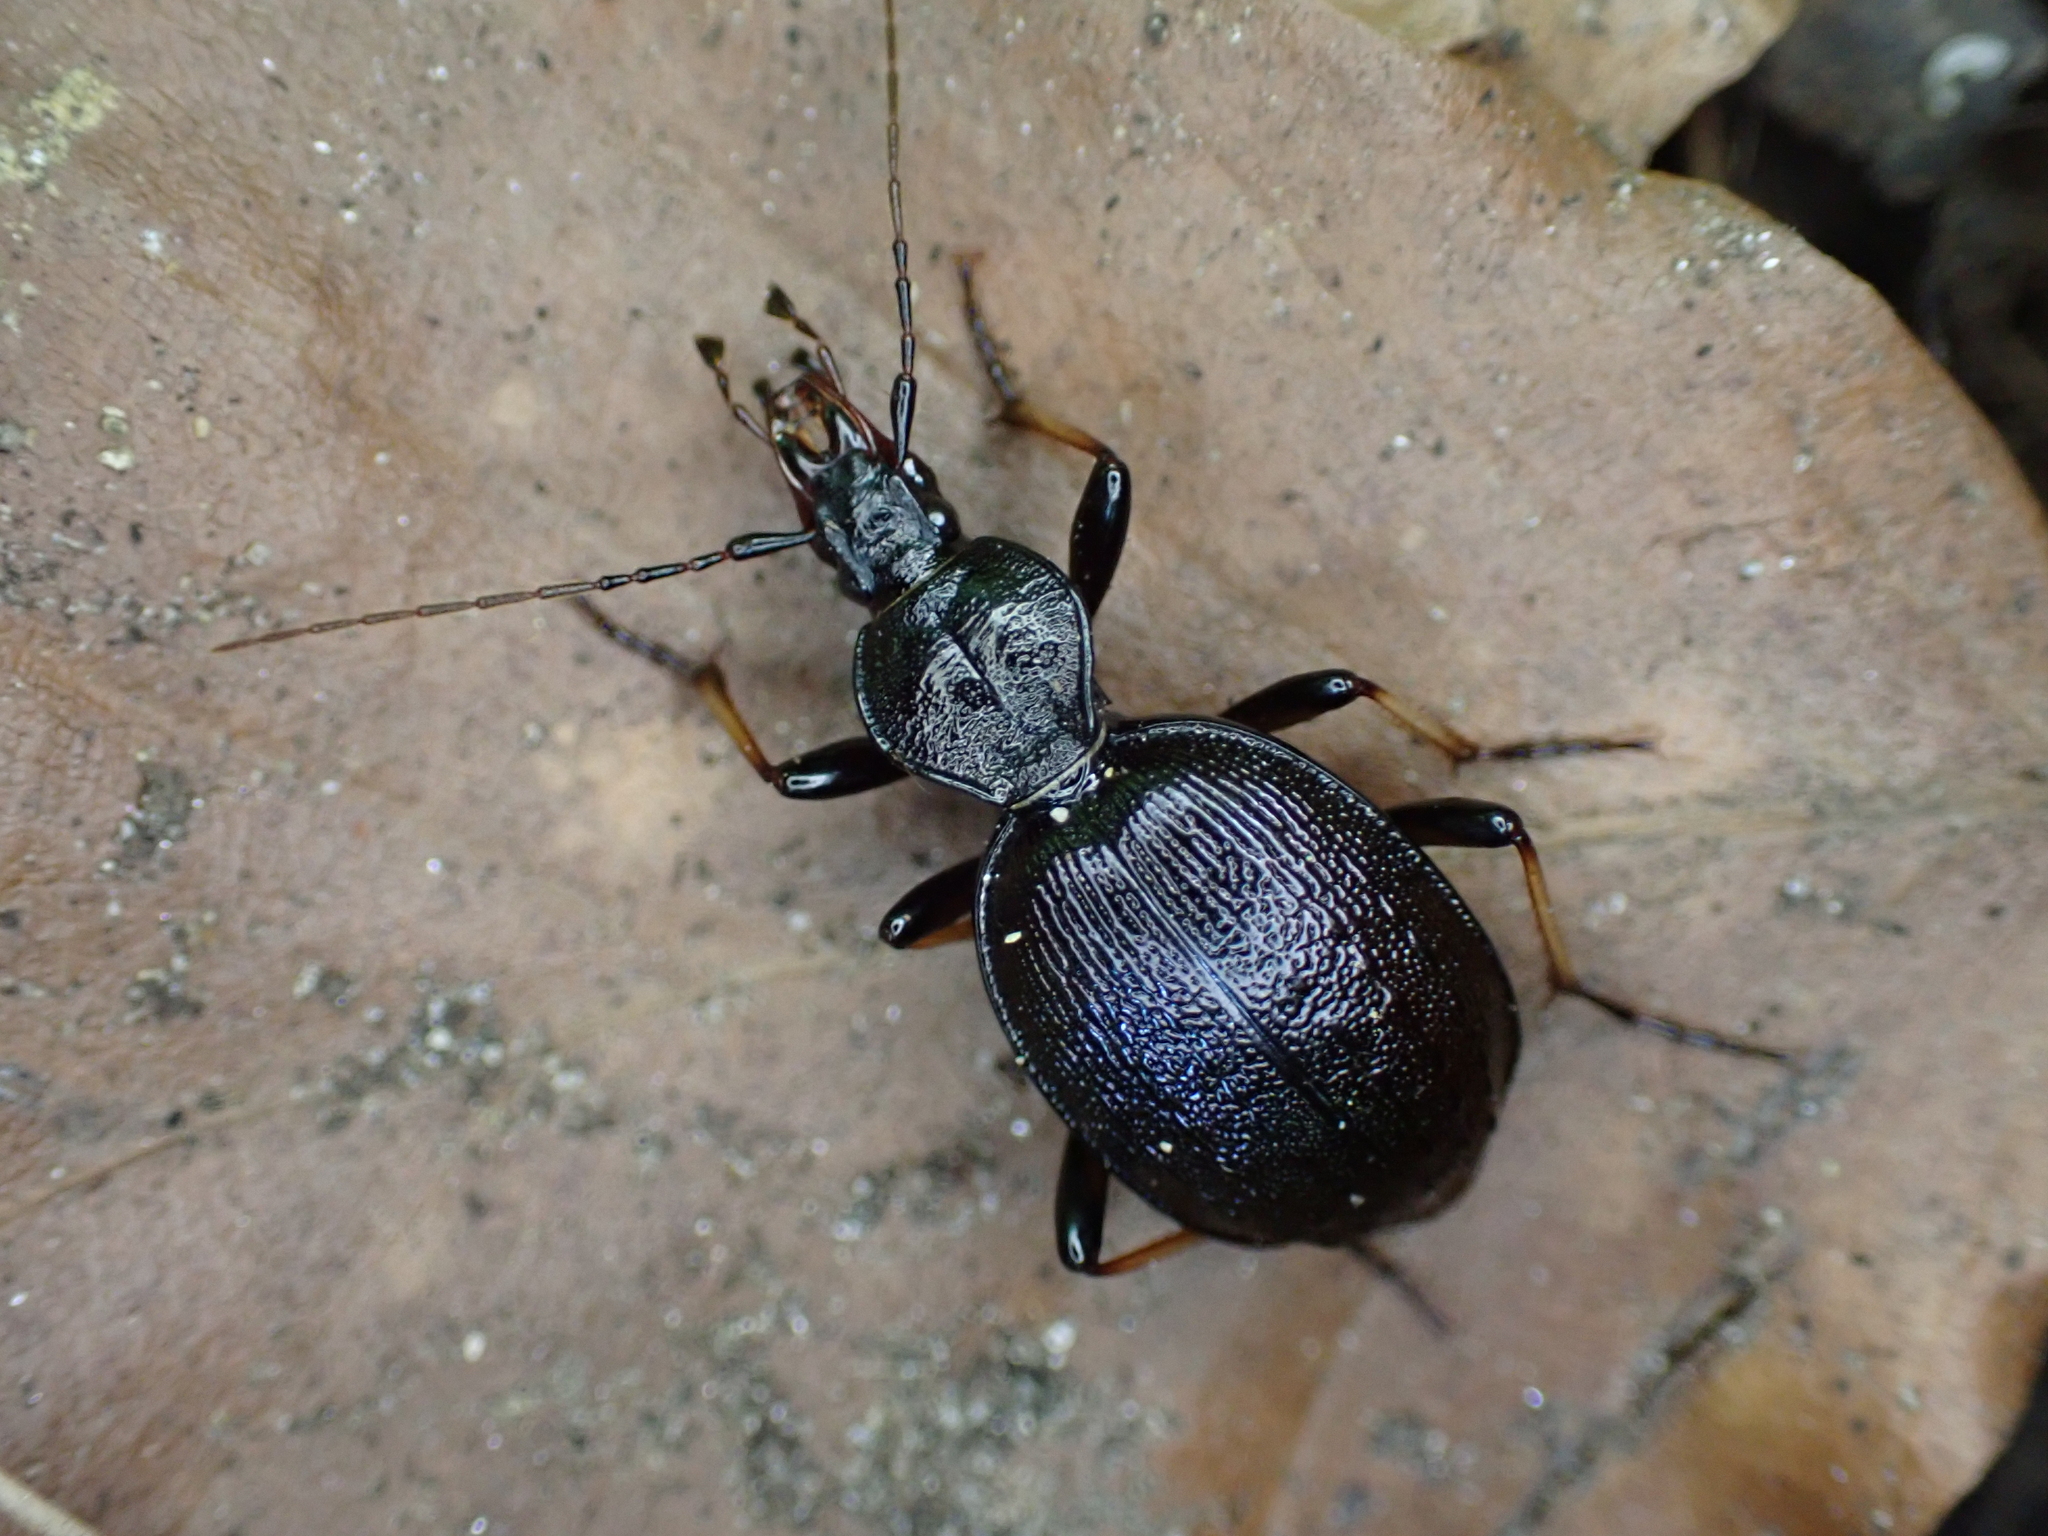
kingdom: Animalia
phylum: Arthropoda
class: Insecta
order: Coleoptera
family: Carabidae
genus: Cychrus
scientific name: Cychrus attenuatus
